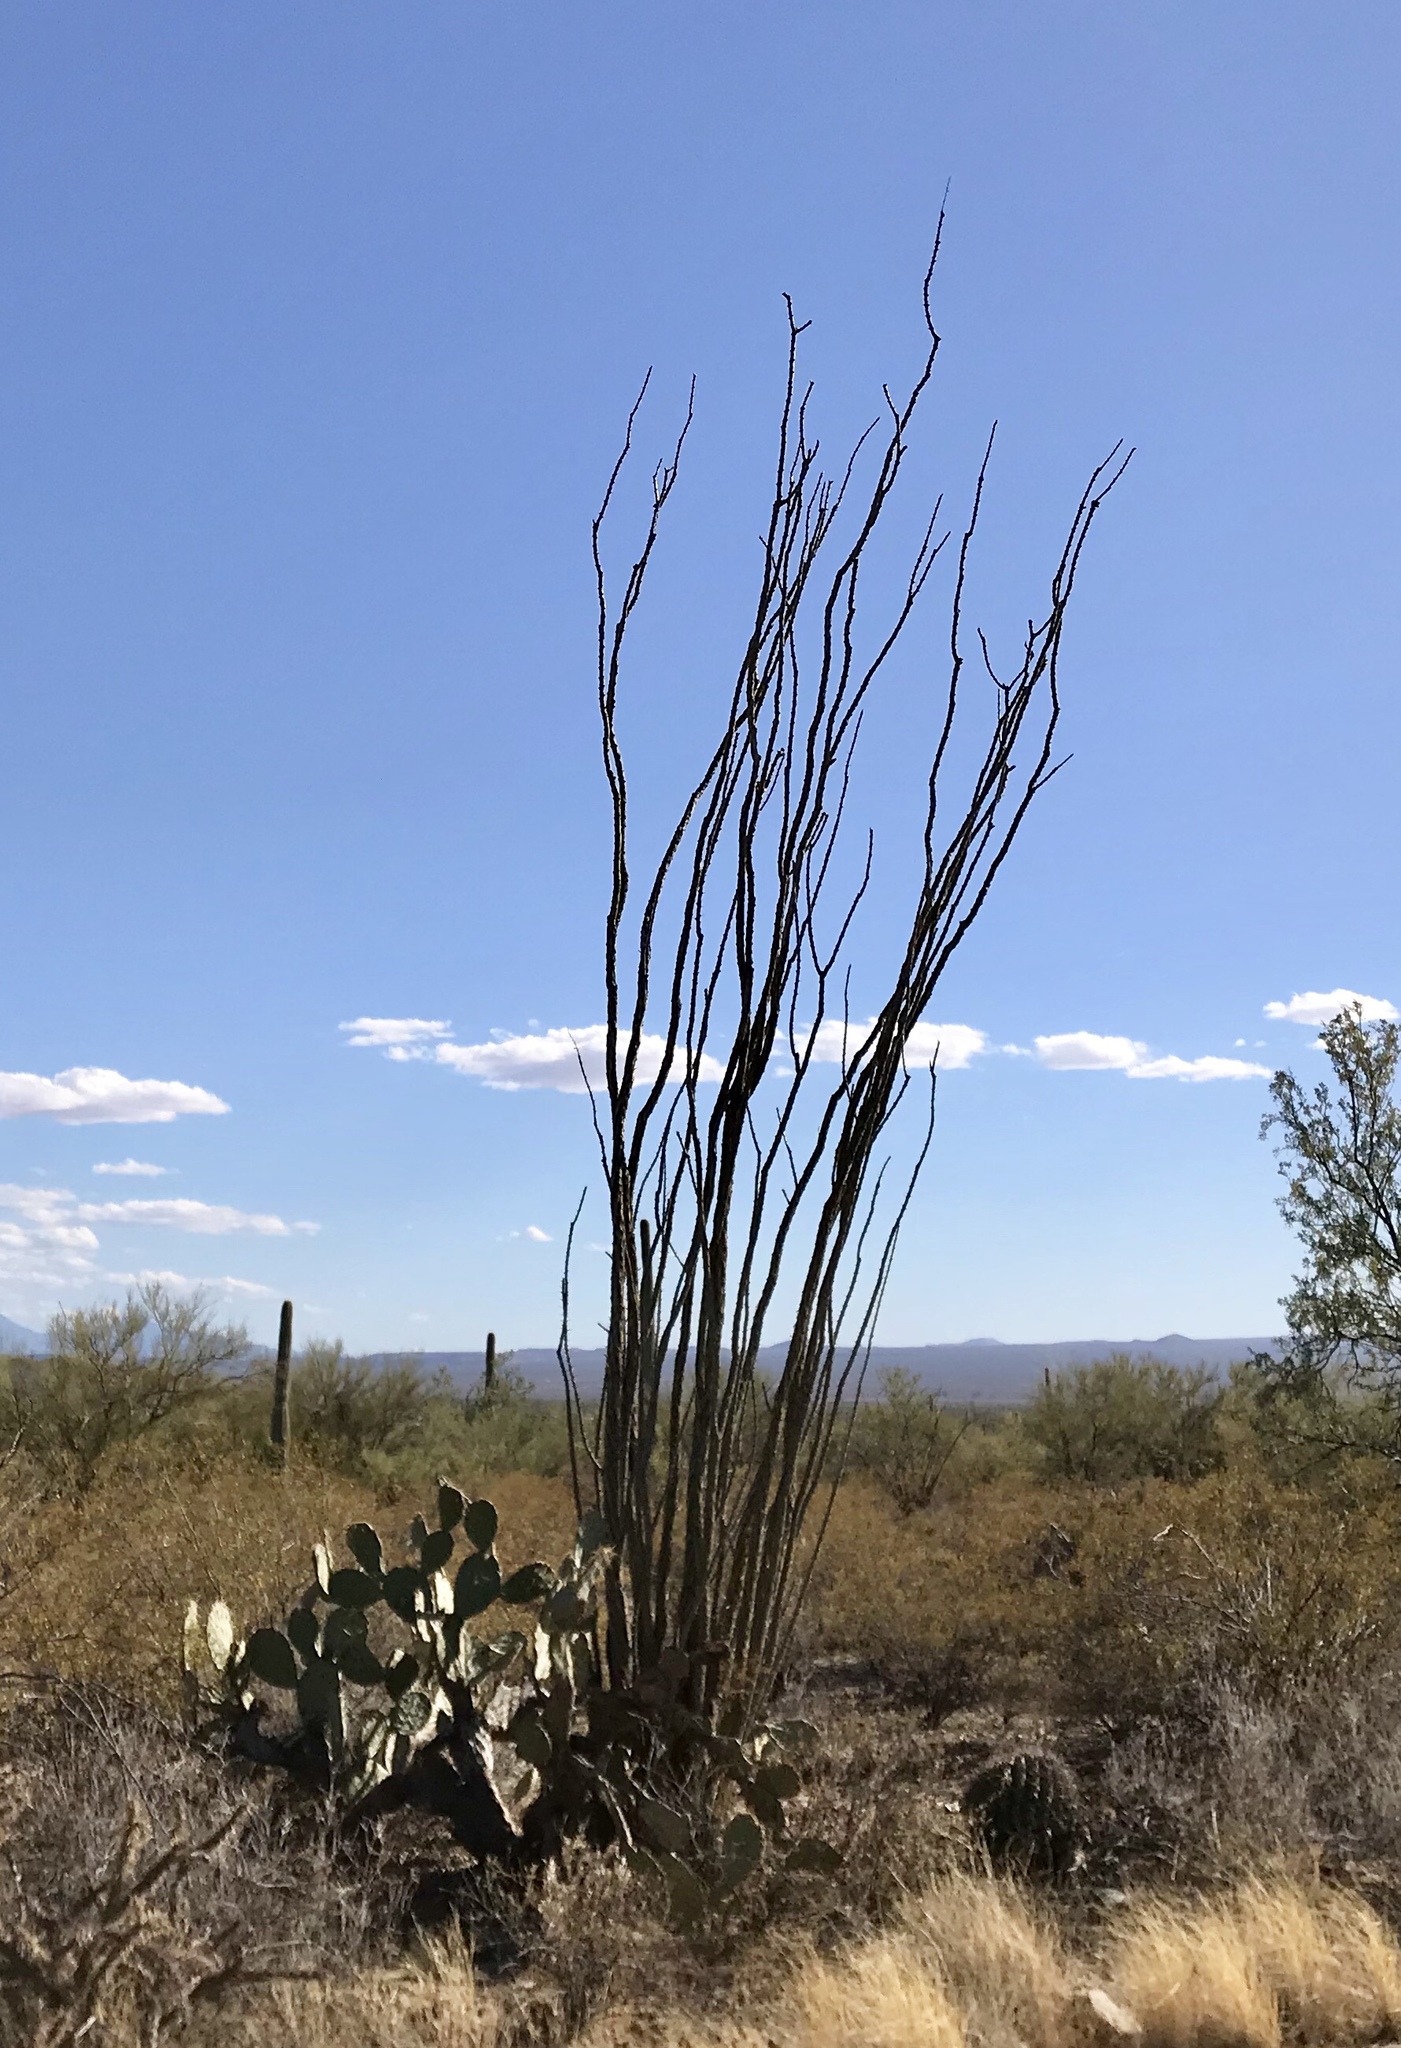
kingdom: Plantae
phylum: Tracheophyta
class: Magnoliopsida
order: Ericales
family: Fouquieriaceae
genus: Fouquieria
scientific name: Fouquieria splendens
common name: Vine-cactus
